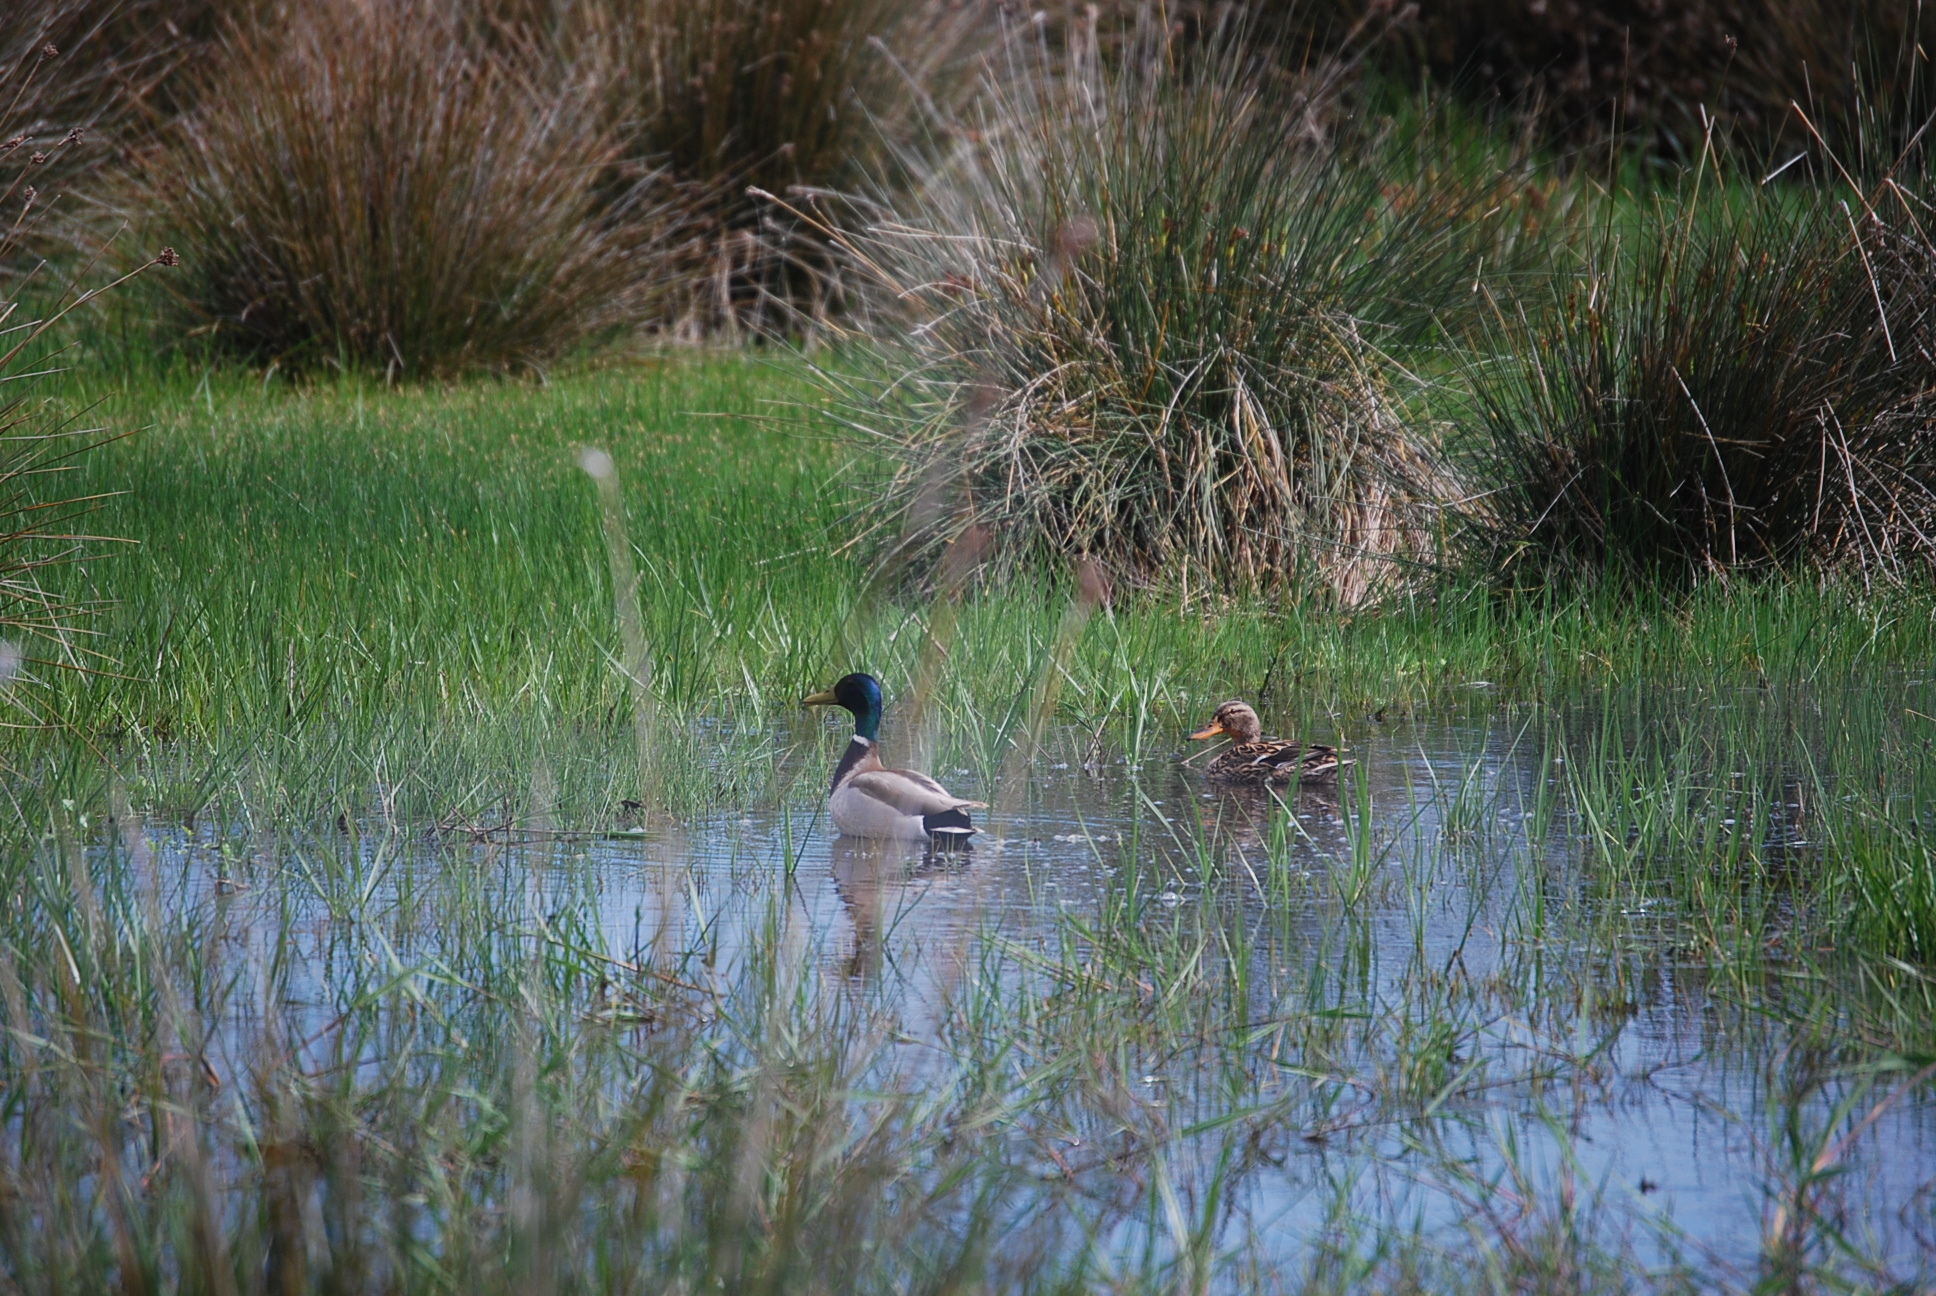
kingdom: Animalia
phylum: Chordata
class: Aves
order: Anseriformes
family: Anatidae
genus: Anas
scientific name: Anas platyrhynchos
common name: Mallard
